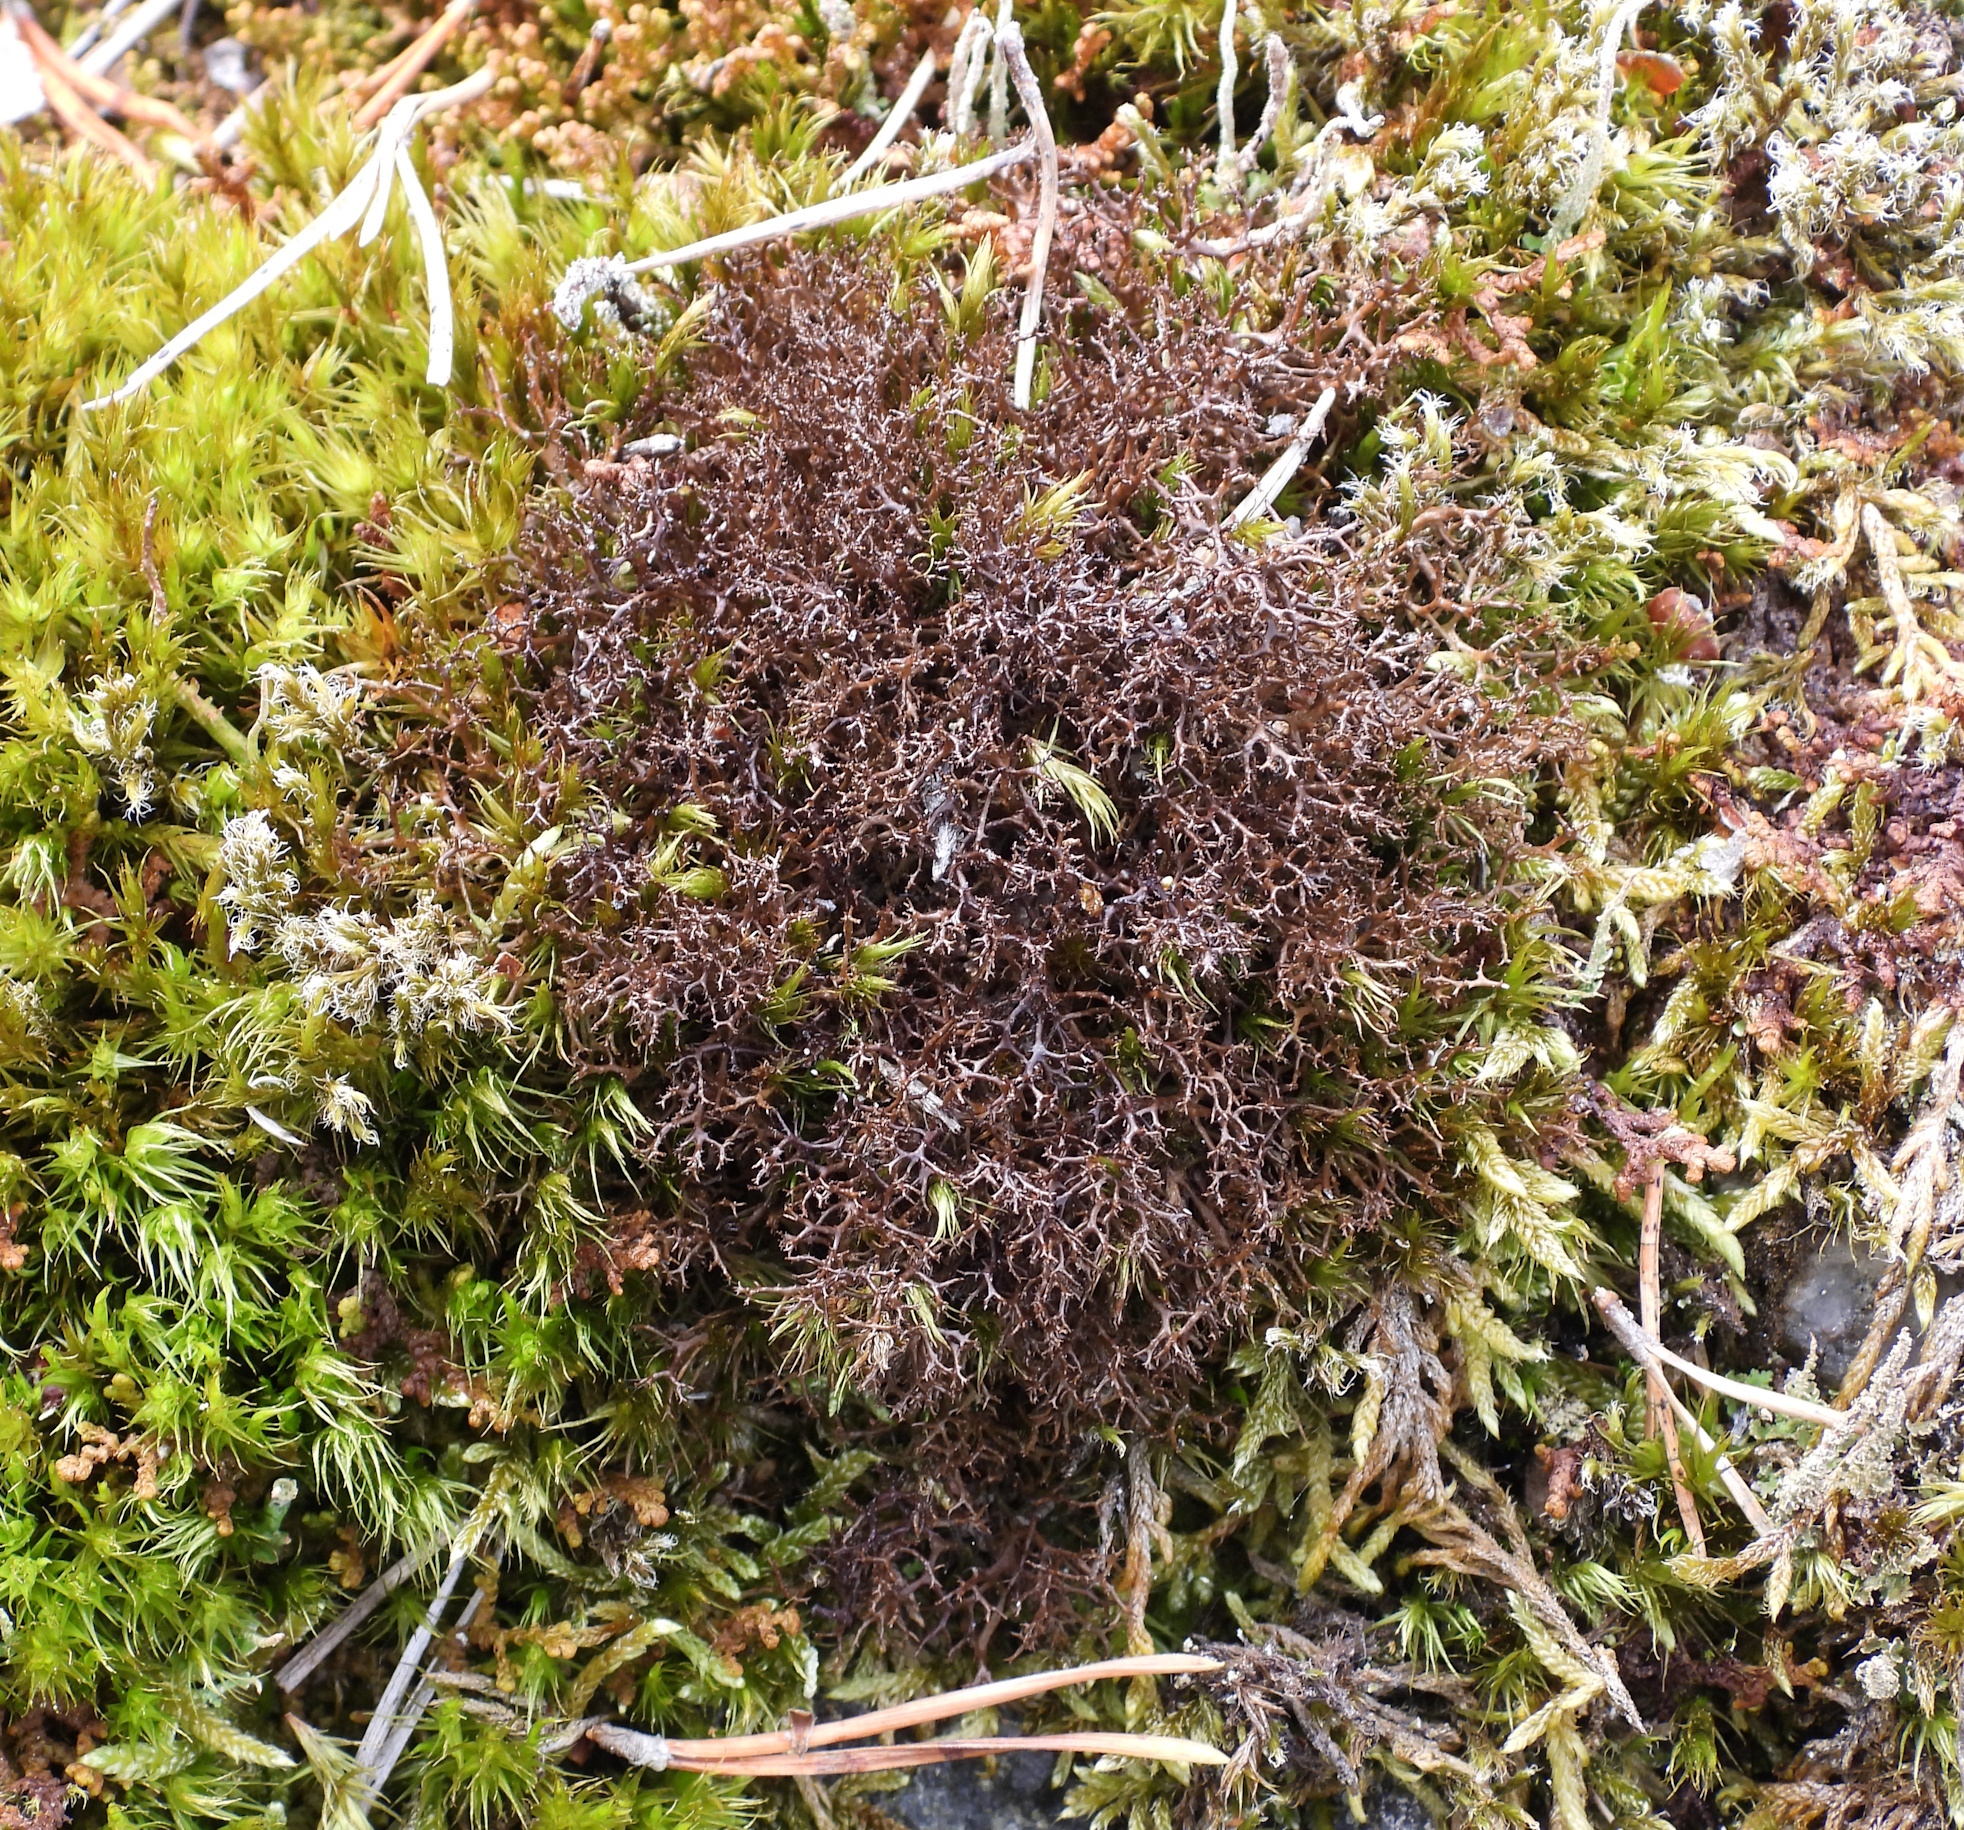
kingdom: Fungi
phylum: Ascomycota
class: Lecanoromycetes
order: Lecanorales
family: Parmeliaceae
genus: Cetraria
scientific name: Cetraria muricata
